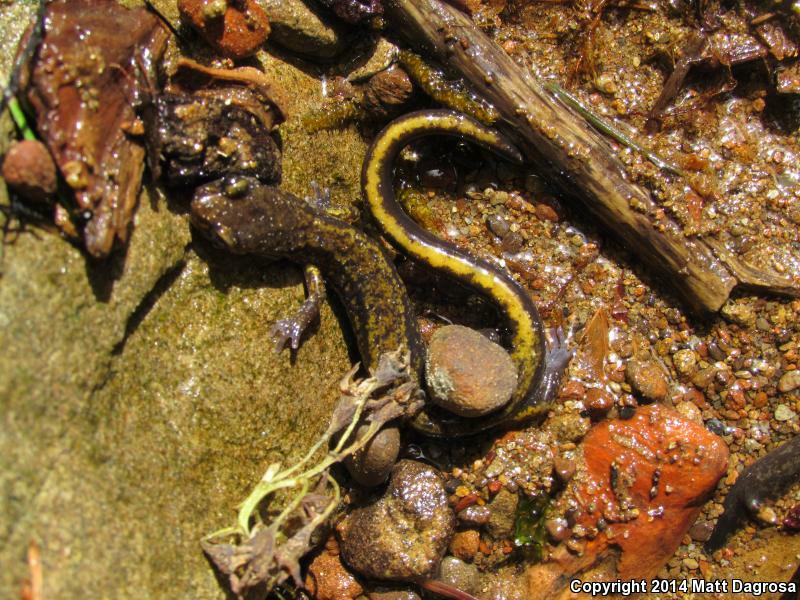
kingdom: Animalia
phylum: Chordata
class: Amphibia
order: Caudata
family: Plethodontidae
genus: Plethodon
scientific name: Plethodon dunni
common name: Dunn's salamander
